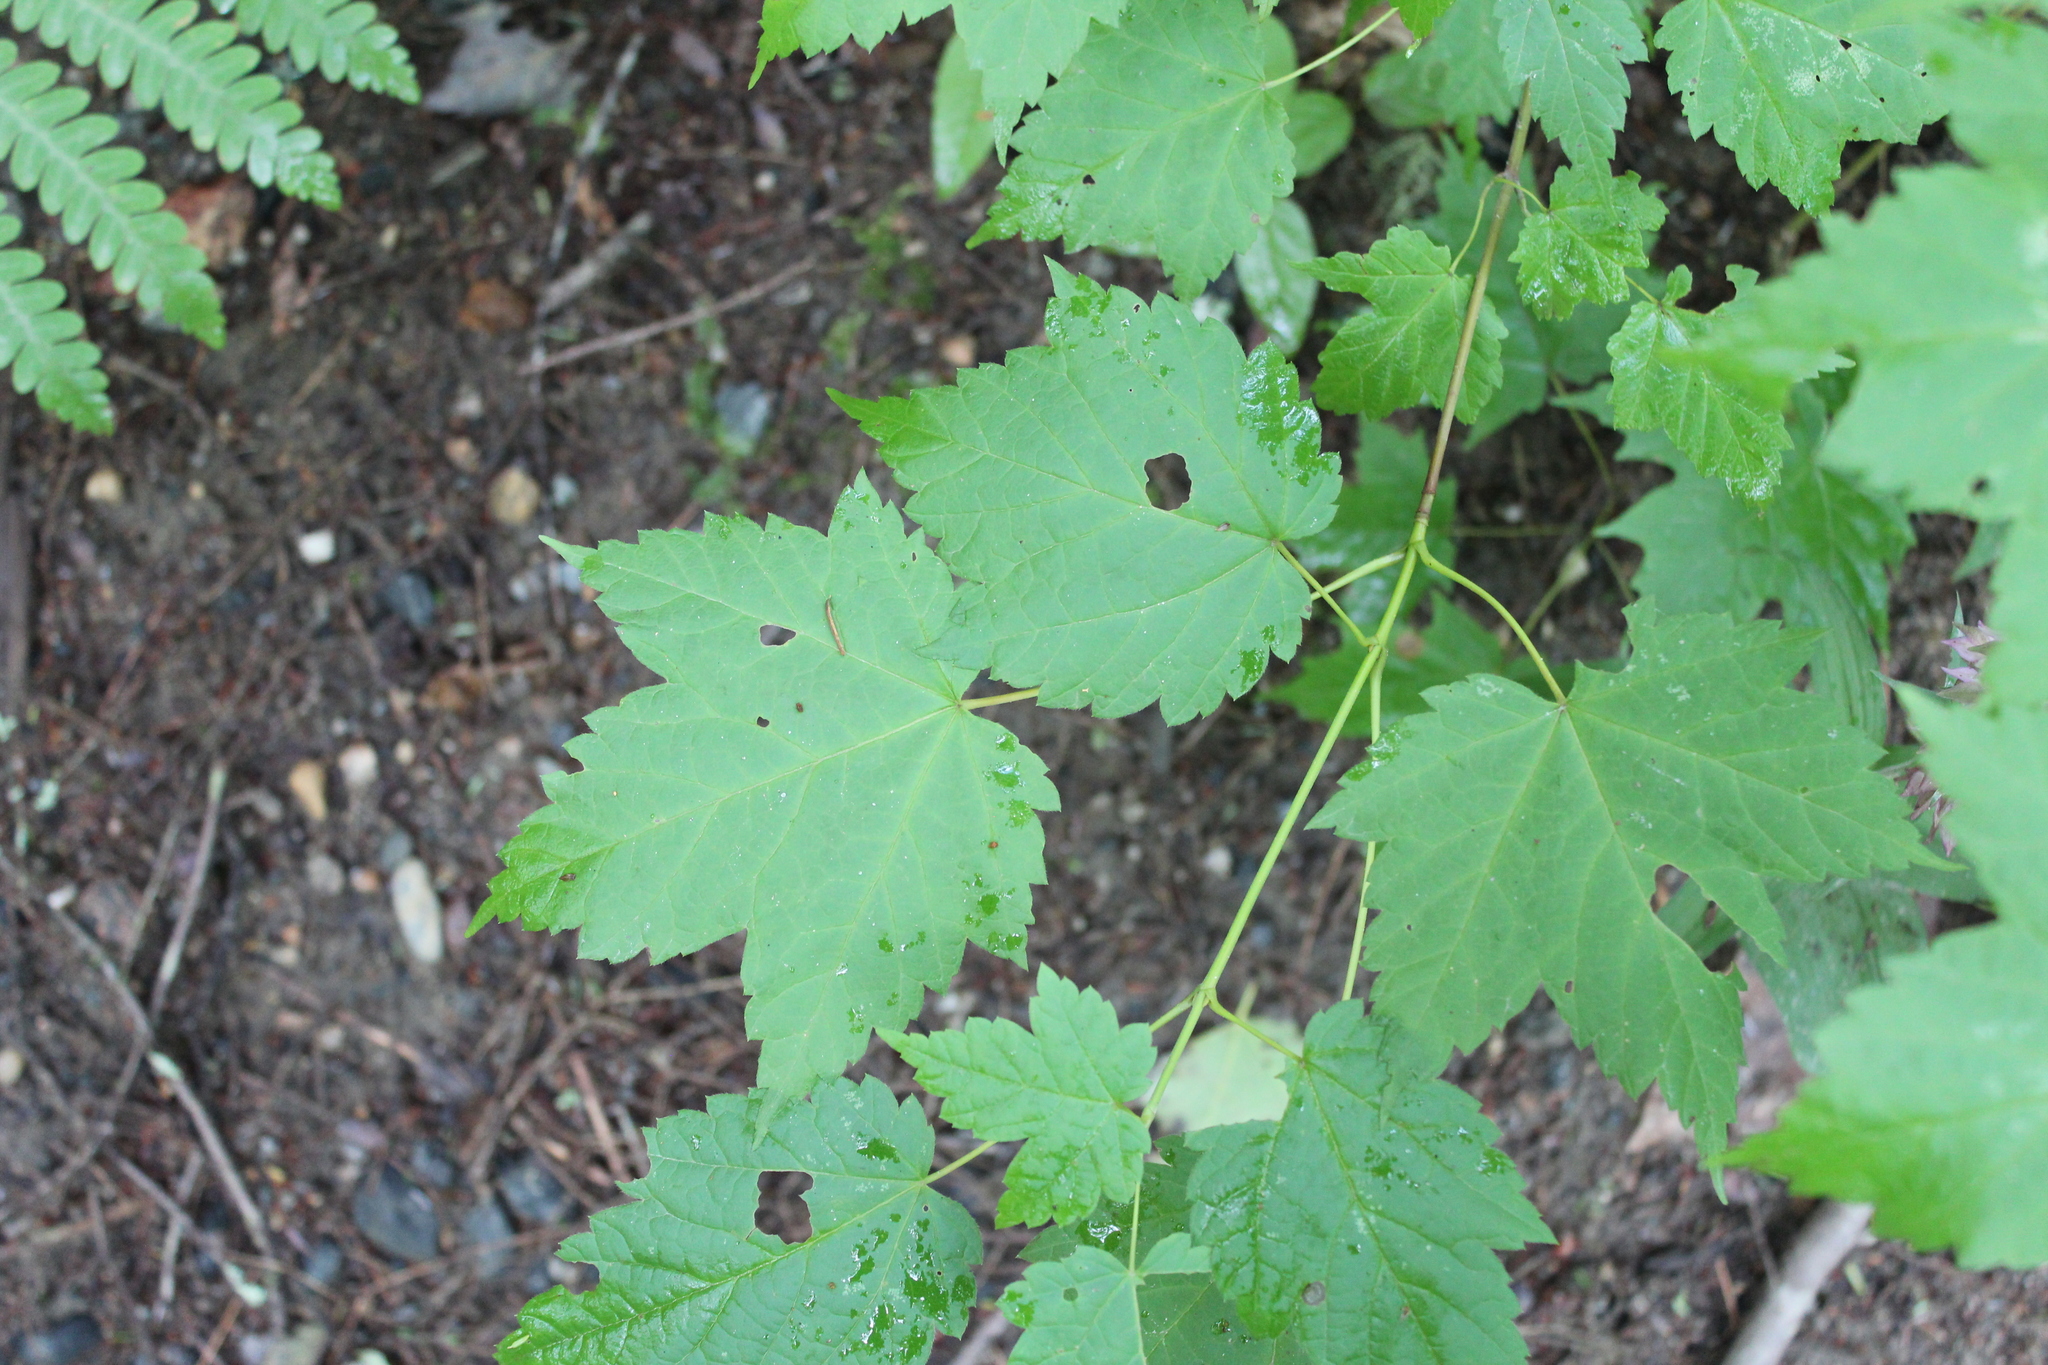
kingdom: Plantae
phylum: Tracheophyta
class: Magnoliopsida
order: Sapindales
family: Sapindaceae
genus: Acer
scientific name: Acer spicatum
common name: Mountain maple
